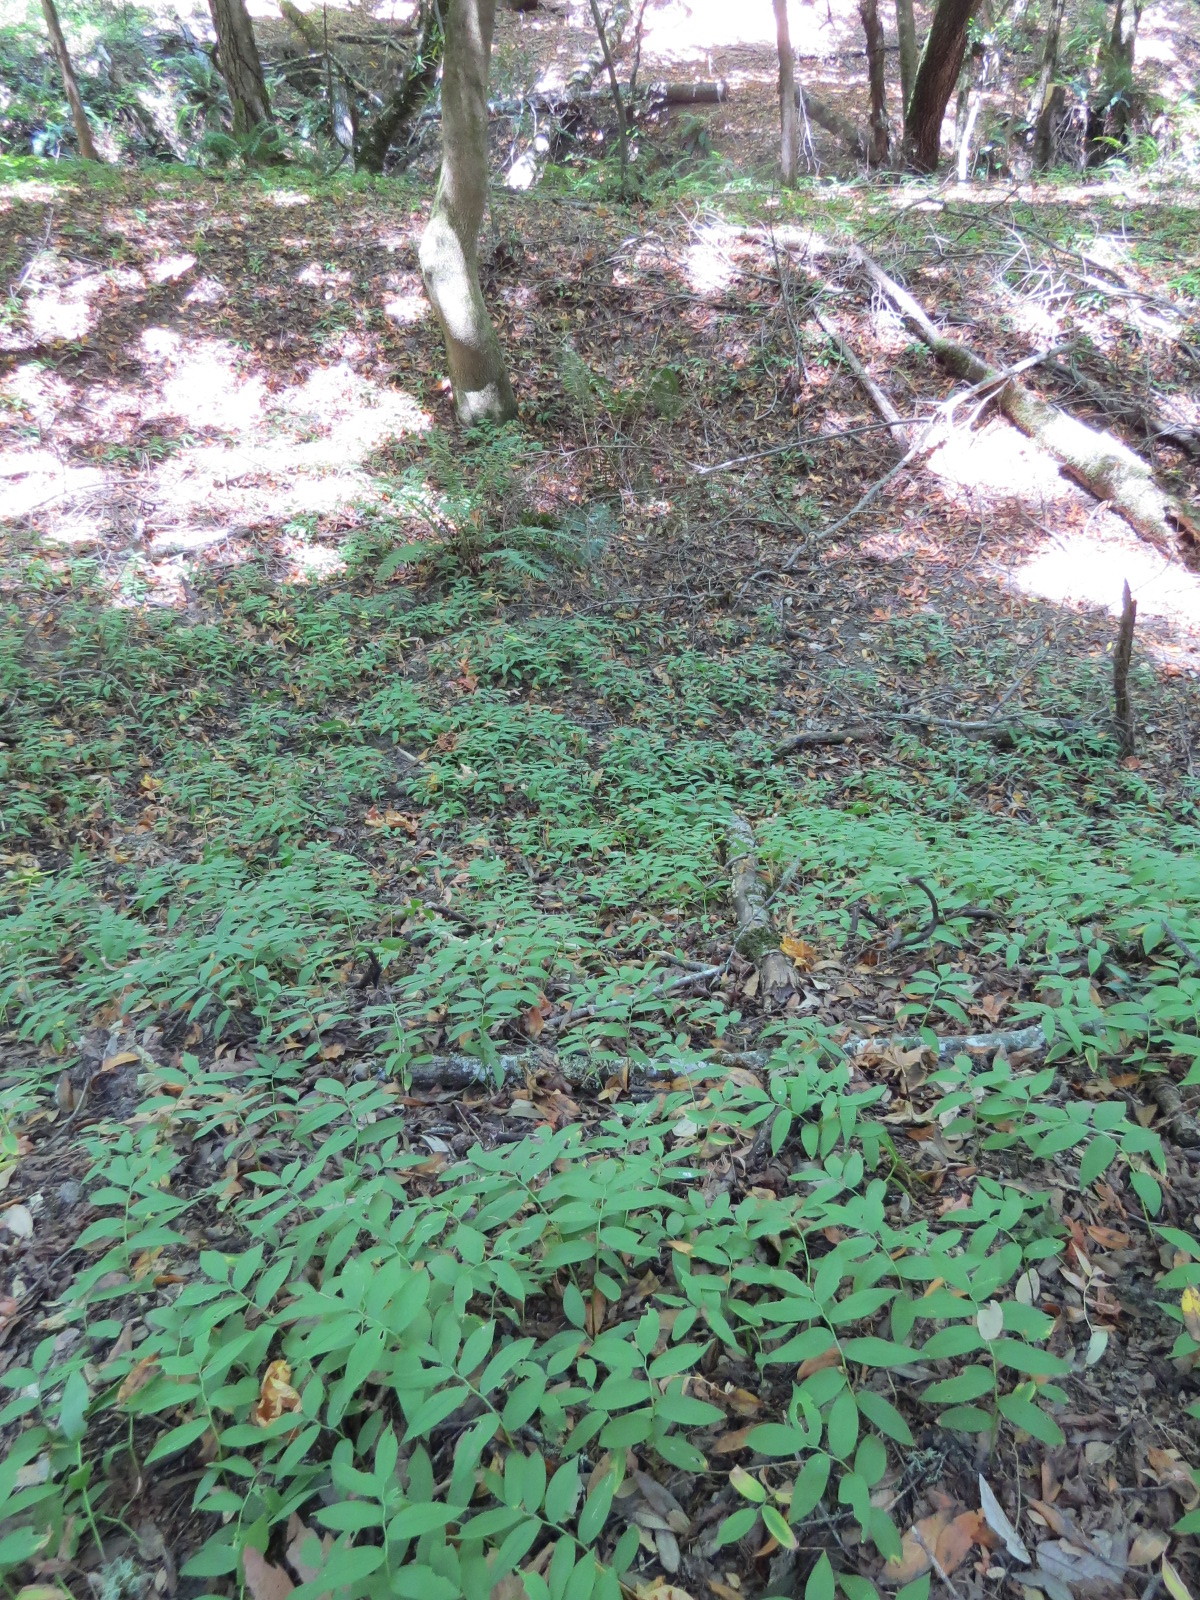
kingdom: Plantae
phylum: Tracheophyta
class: Liliopsida
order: Asparagales
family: Asparagaceae
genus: Maianthemum
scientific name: Maianthemum stellatum
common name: Little false solomon's seal
